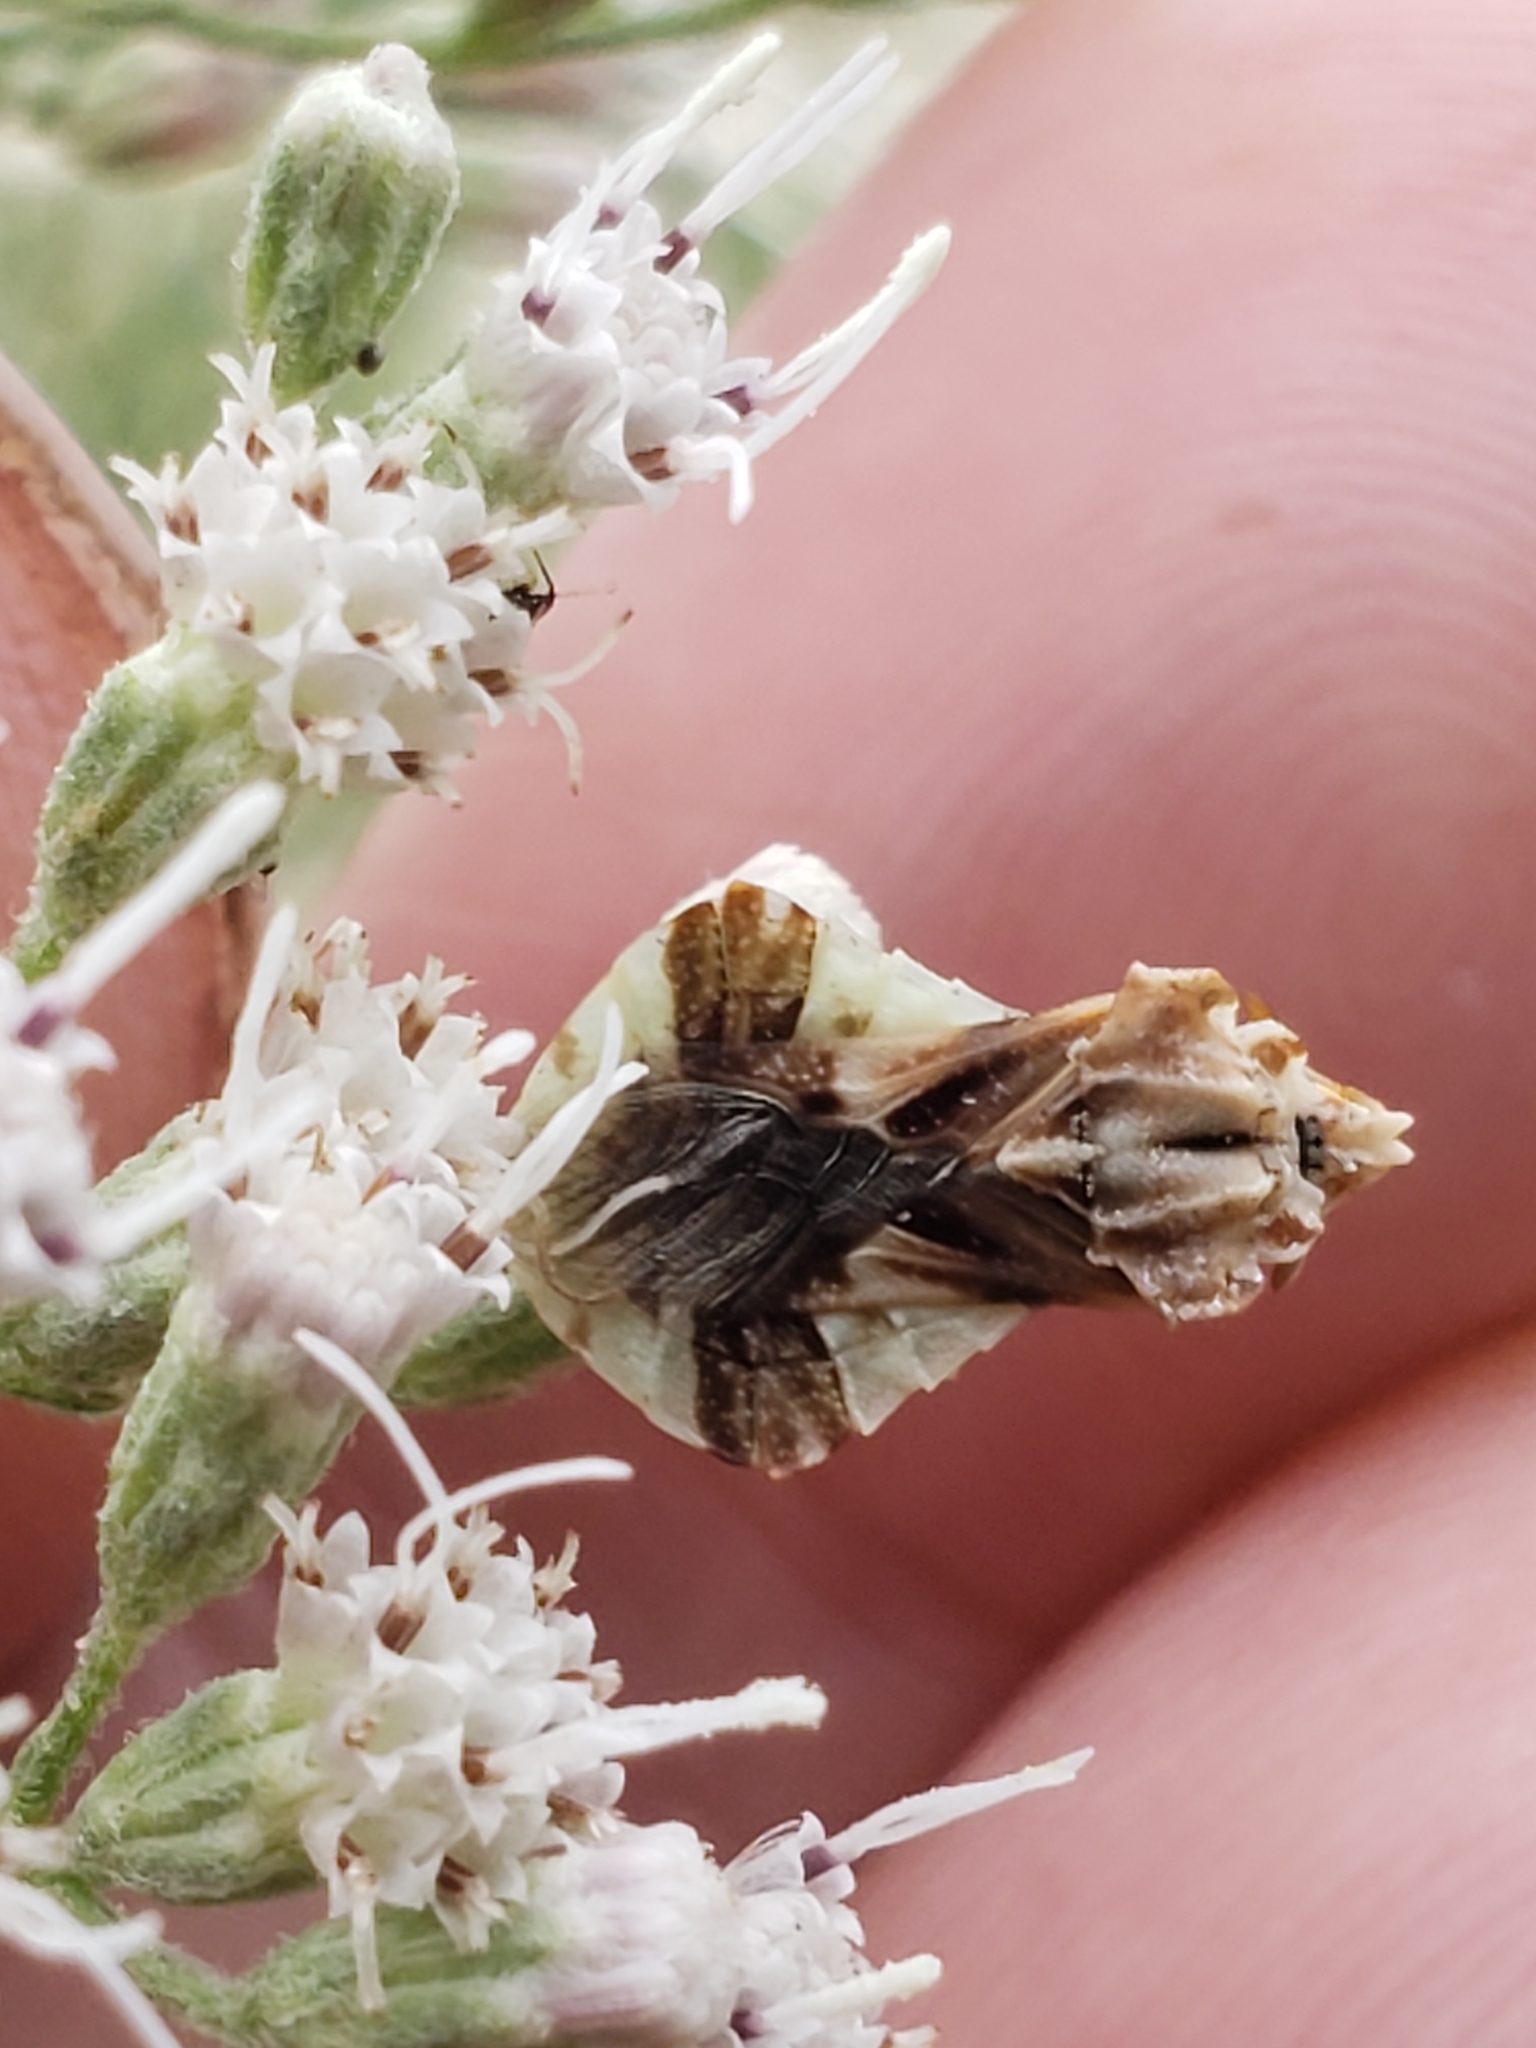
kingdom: Animalia
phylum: Arthropoda
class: Insecta
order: Hemiptera
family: Reduviidae
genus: Phymata
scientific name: Phymata fasciata
